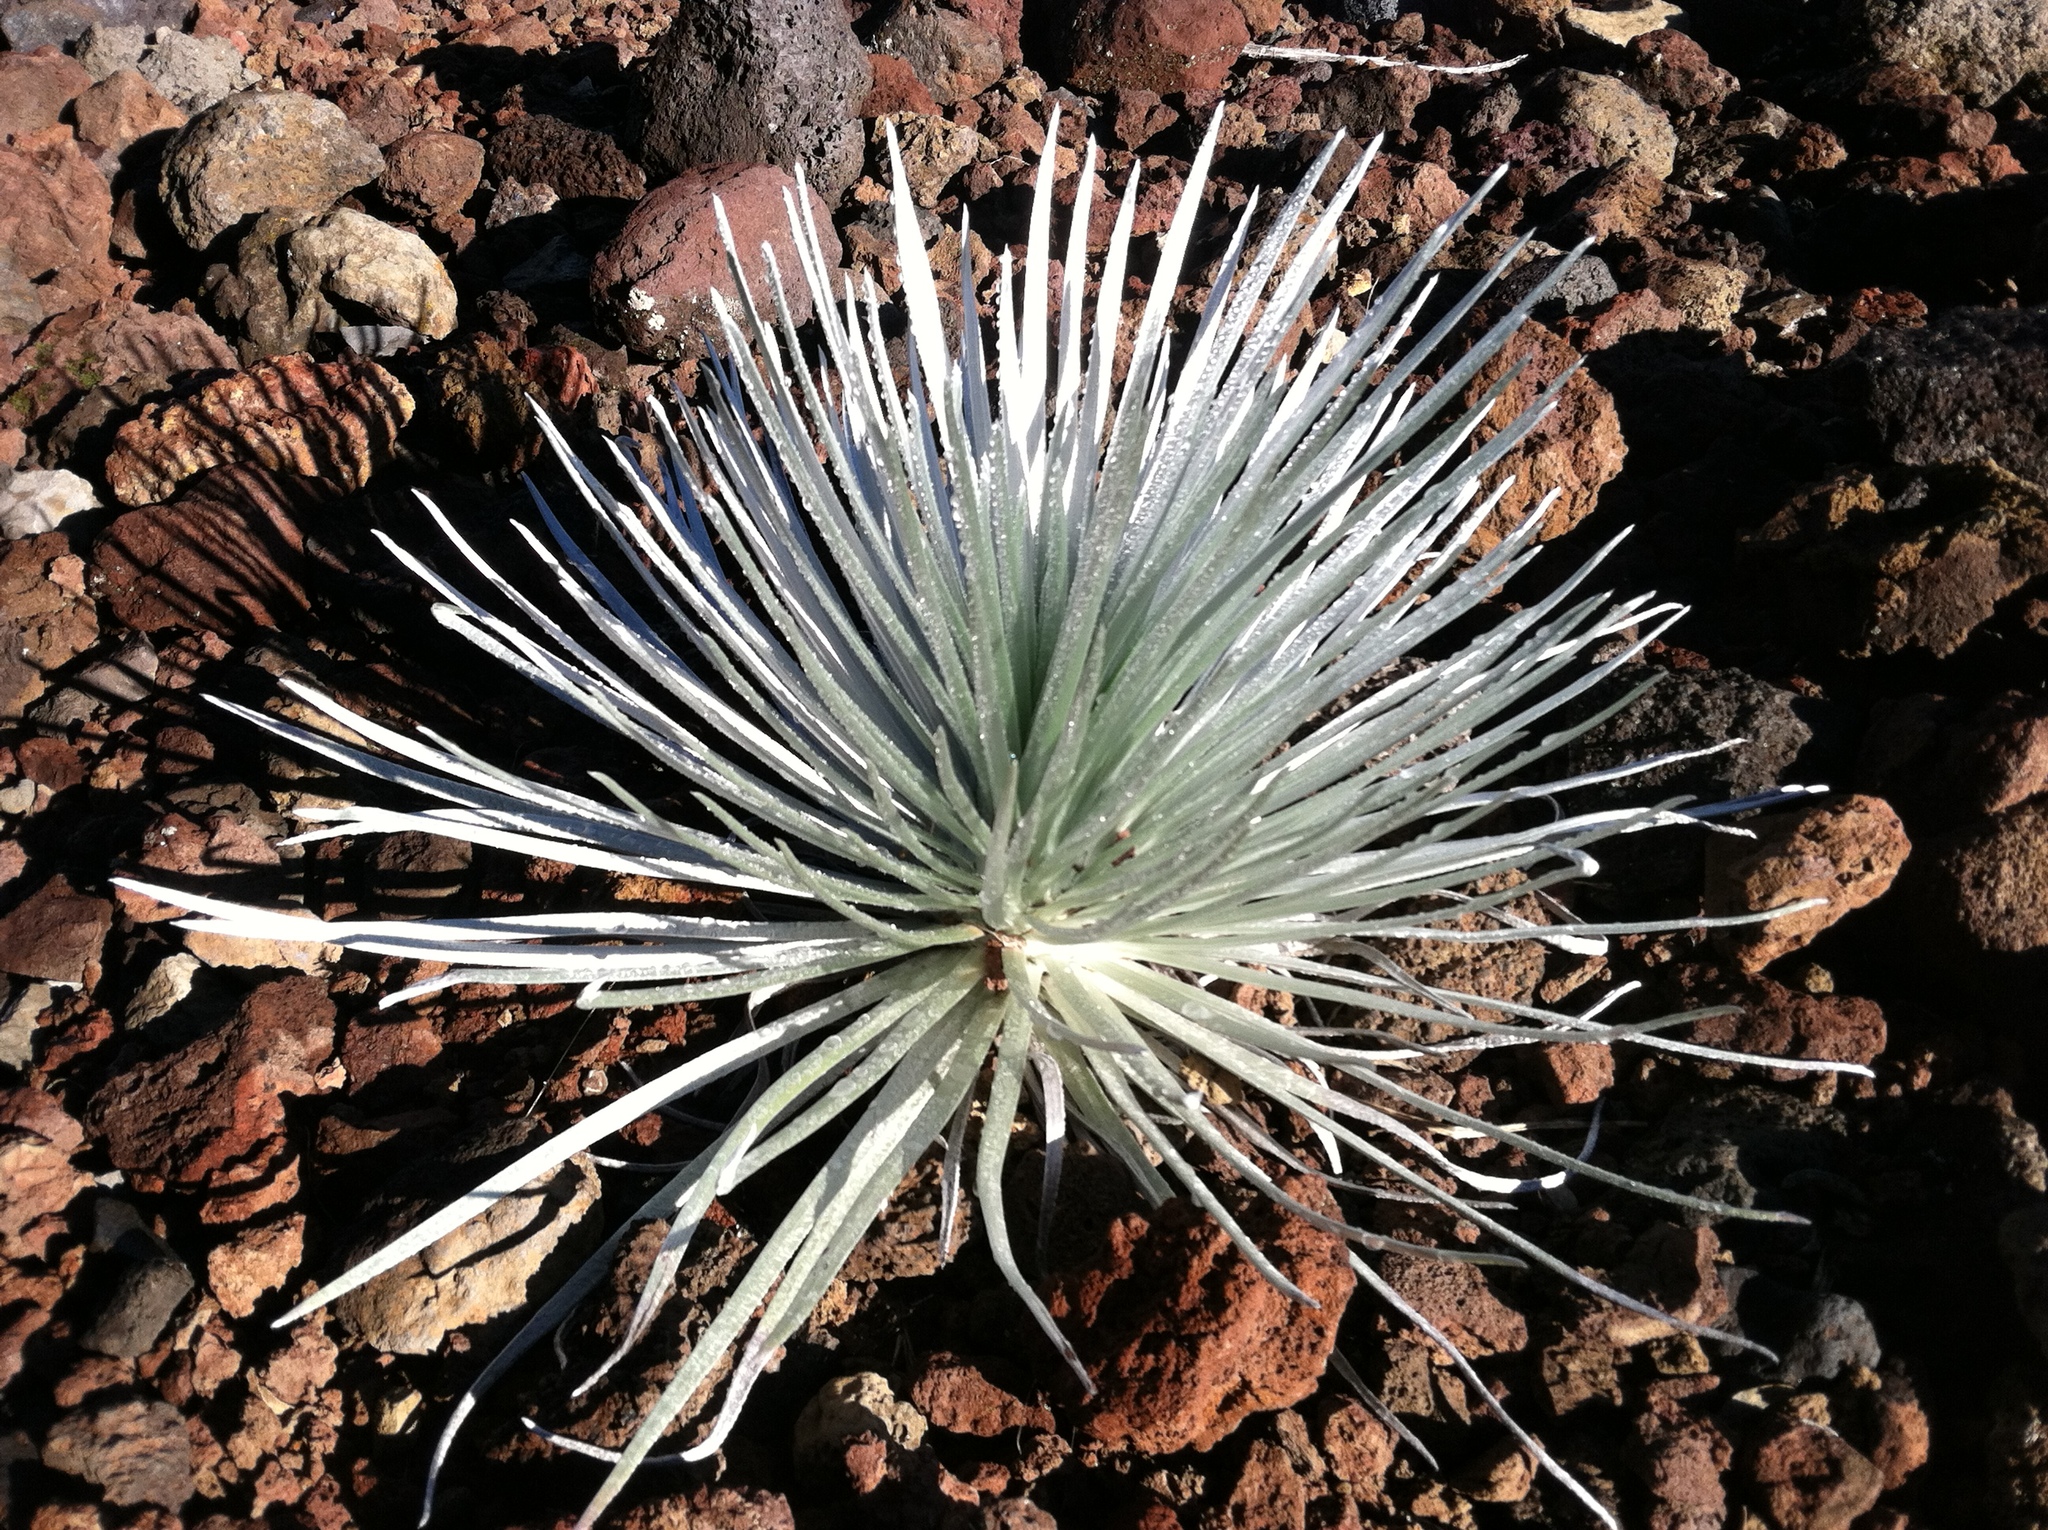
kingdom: Plantae
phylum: Tracheophyta
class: Magnoliopsida
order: Asterales
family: Asteraceae
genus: Argyroxiphium
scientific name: Argyroxiphium sandwicense
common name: Silversword
